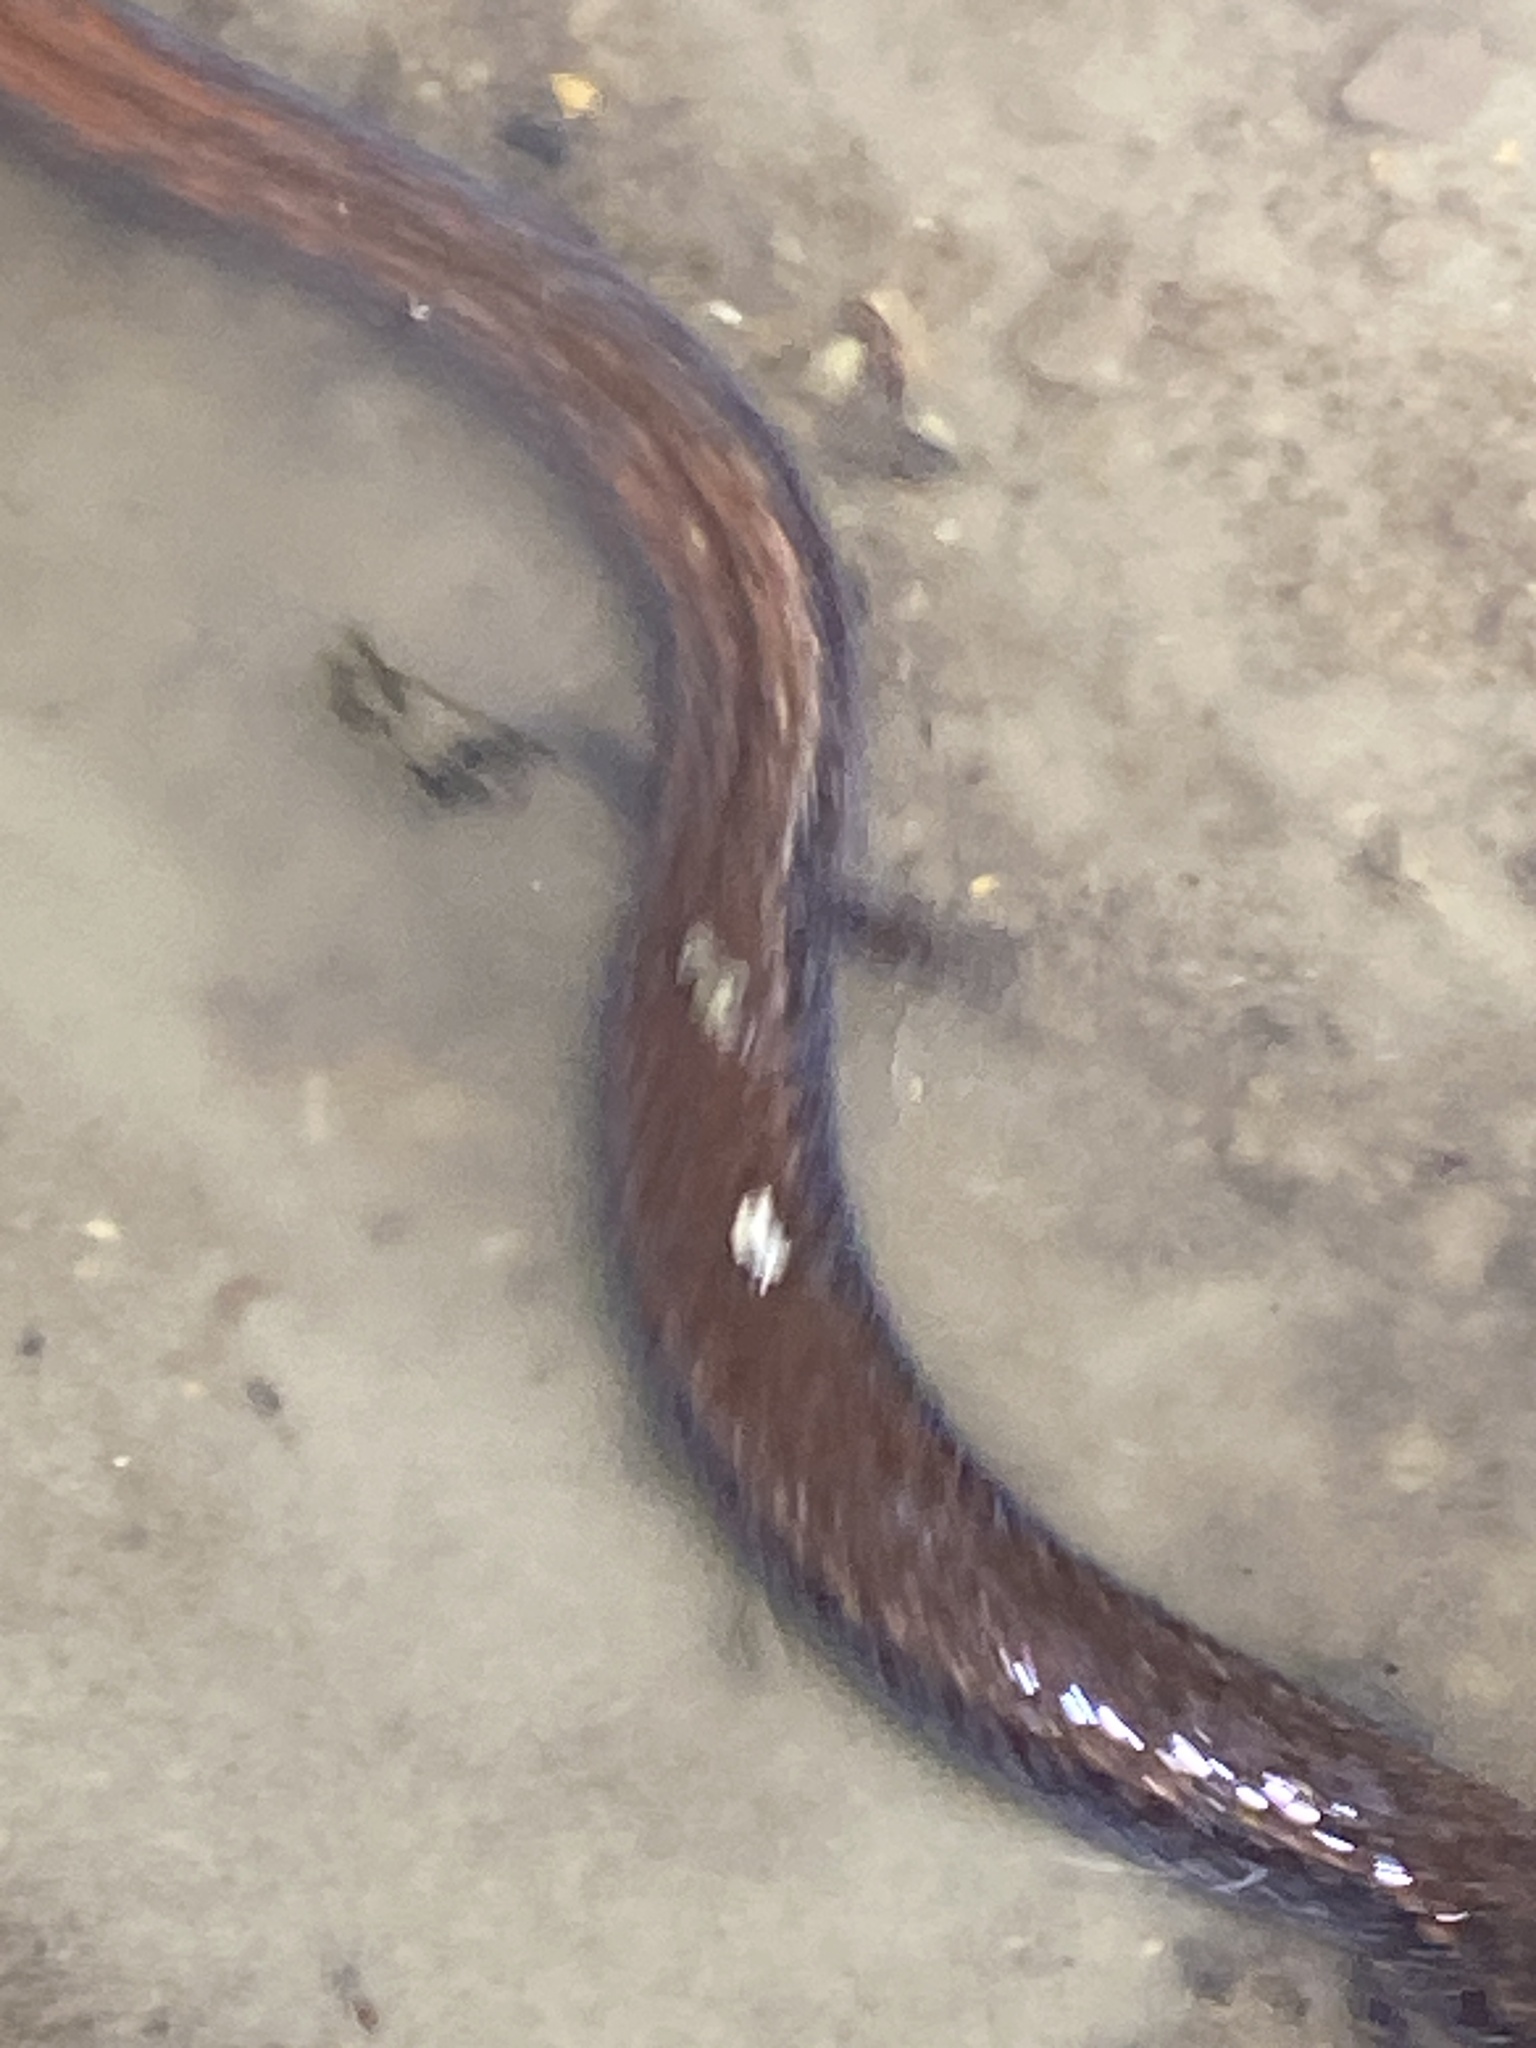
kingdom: Animalia
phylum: Chordata
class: Amphibia
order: Caudata
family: Plethodontidae
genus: Batrachoseps
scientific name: Batrachoseps attenuatus
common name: California slender salamander
